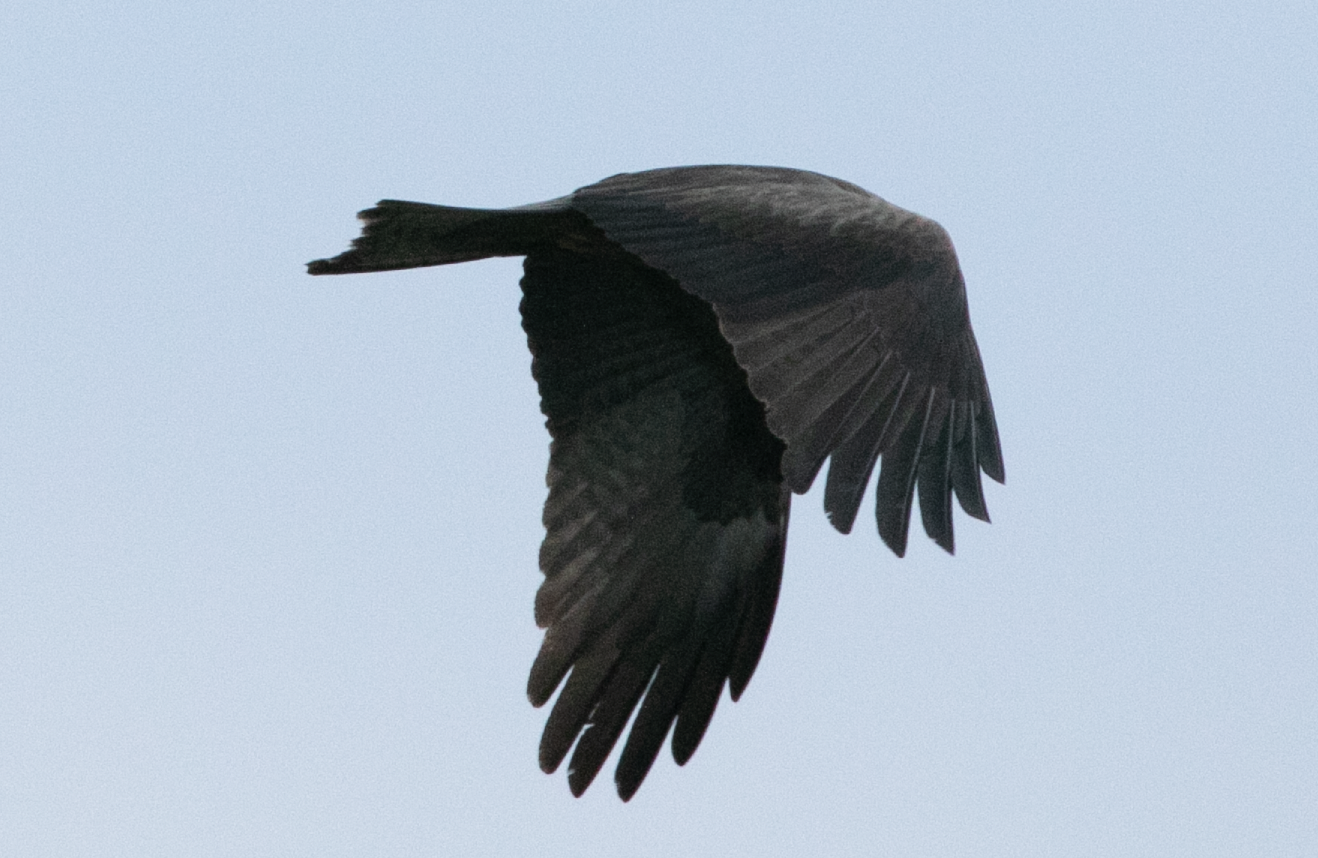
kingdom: Animalia
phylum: Chordata
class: Aves
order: Accipitriformes
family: Accipitridae
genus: Milvus
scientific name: Milvus migrans
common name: Black kite
